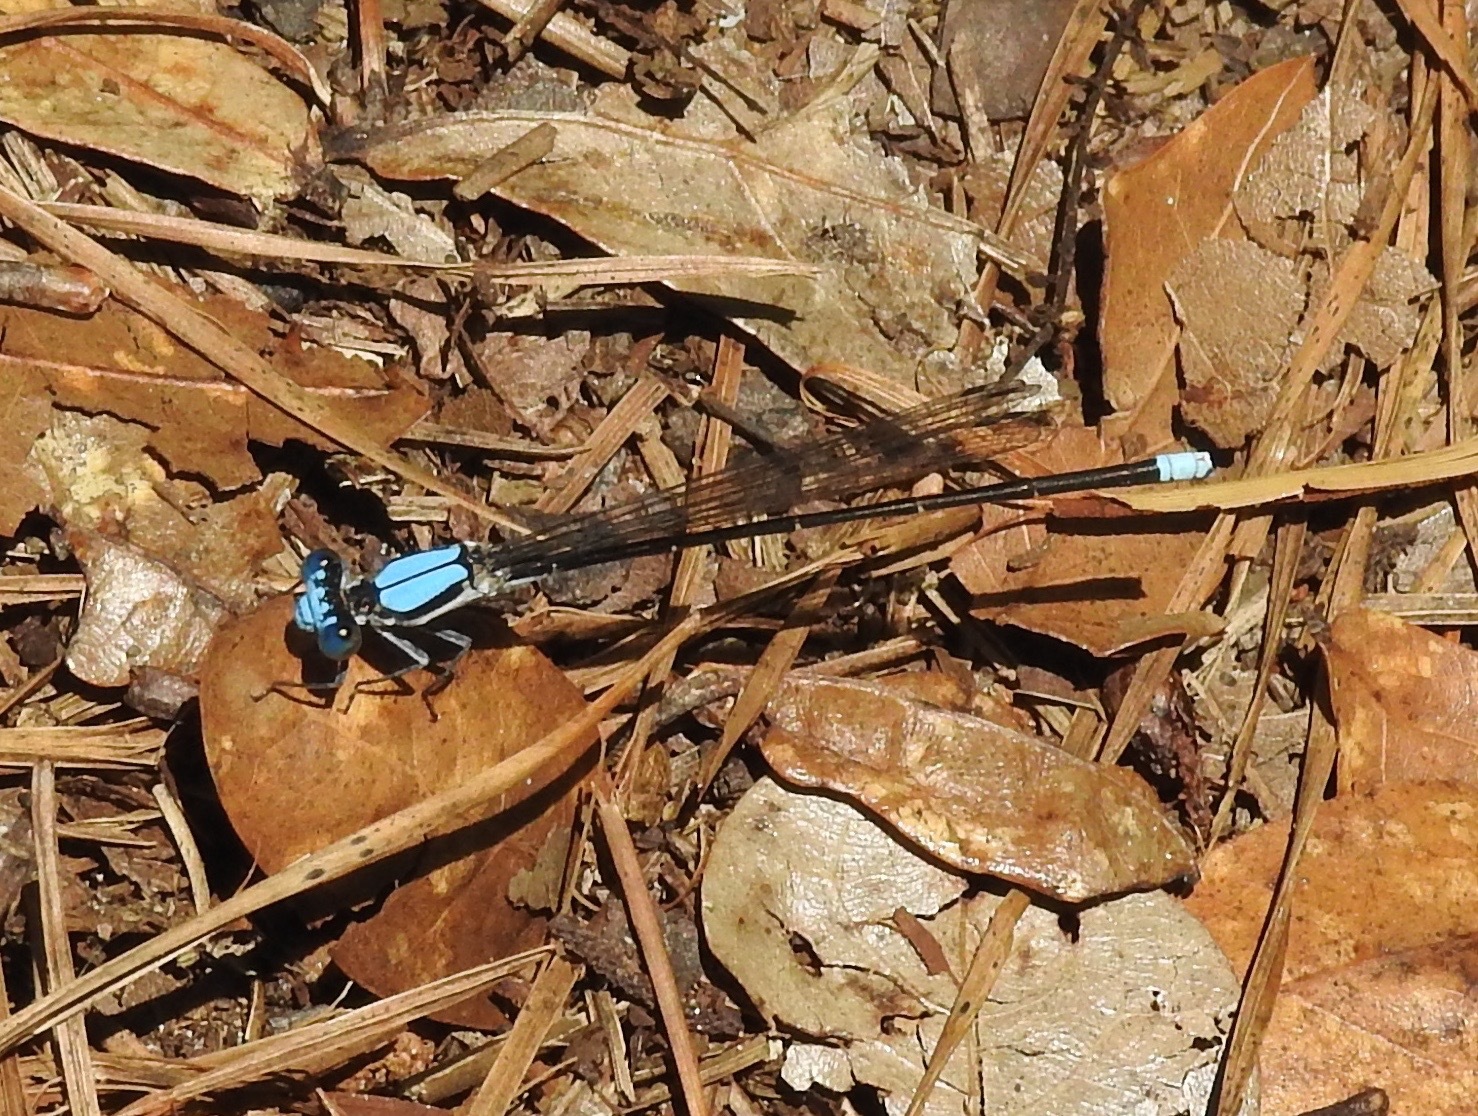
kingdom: Animalia
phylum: Arthropoda
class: Insecta
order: Odonata
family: Coenagrionidae
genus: Argia
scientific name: Argia apicalis
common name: Blue-fronted dancer
